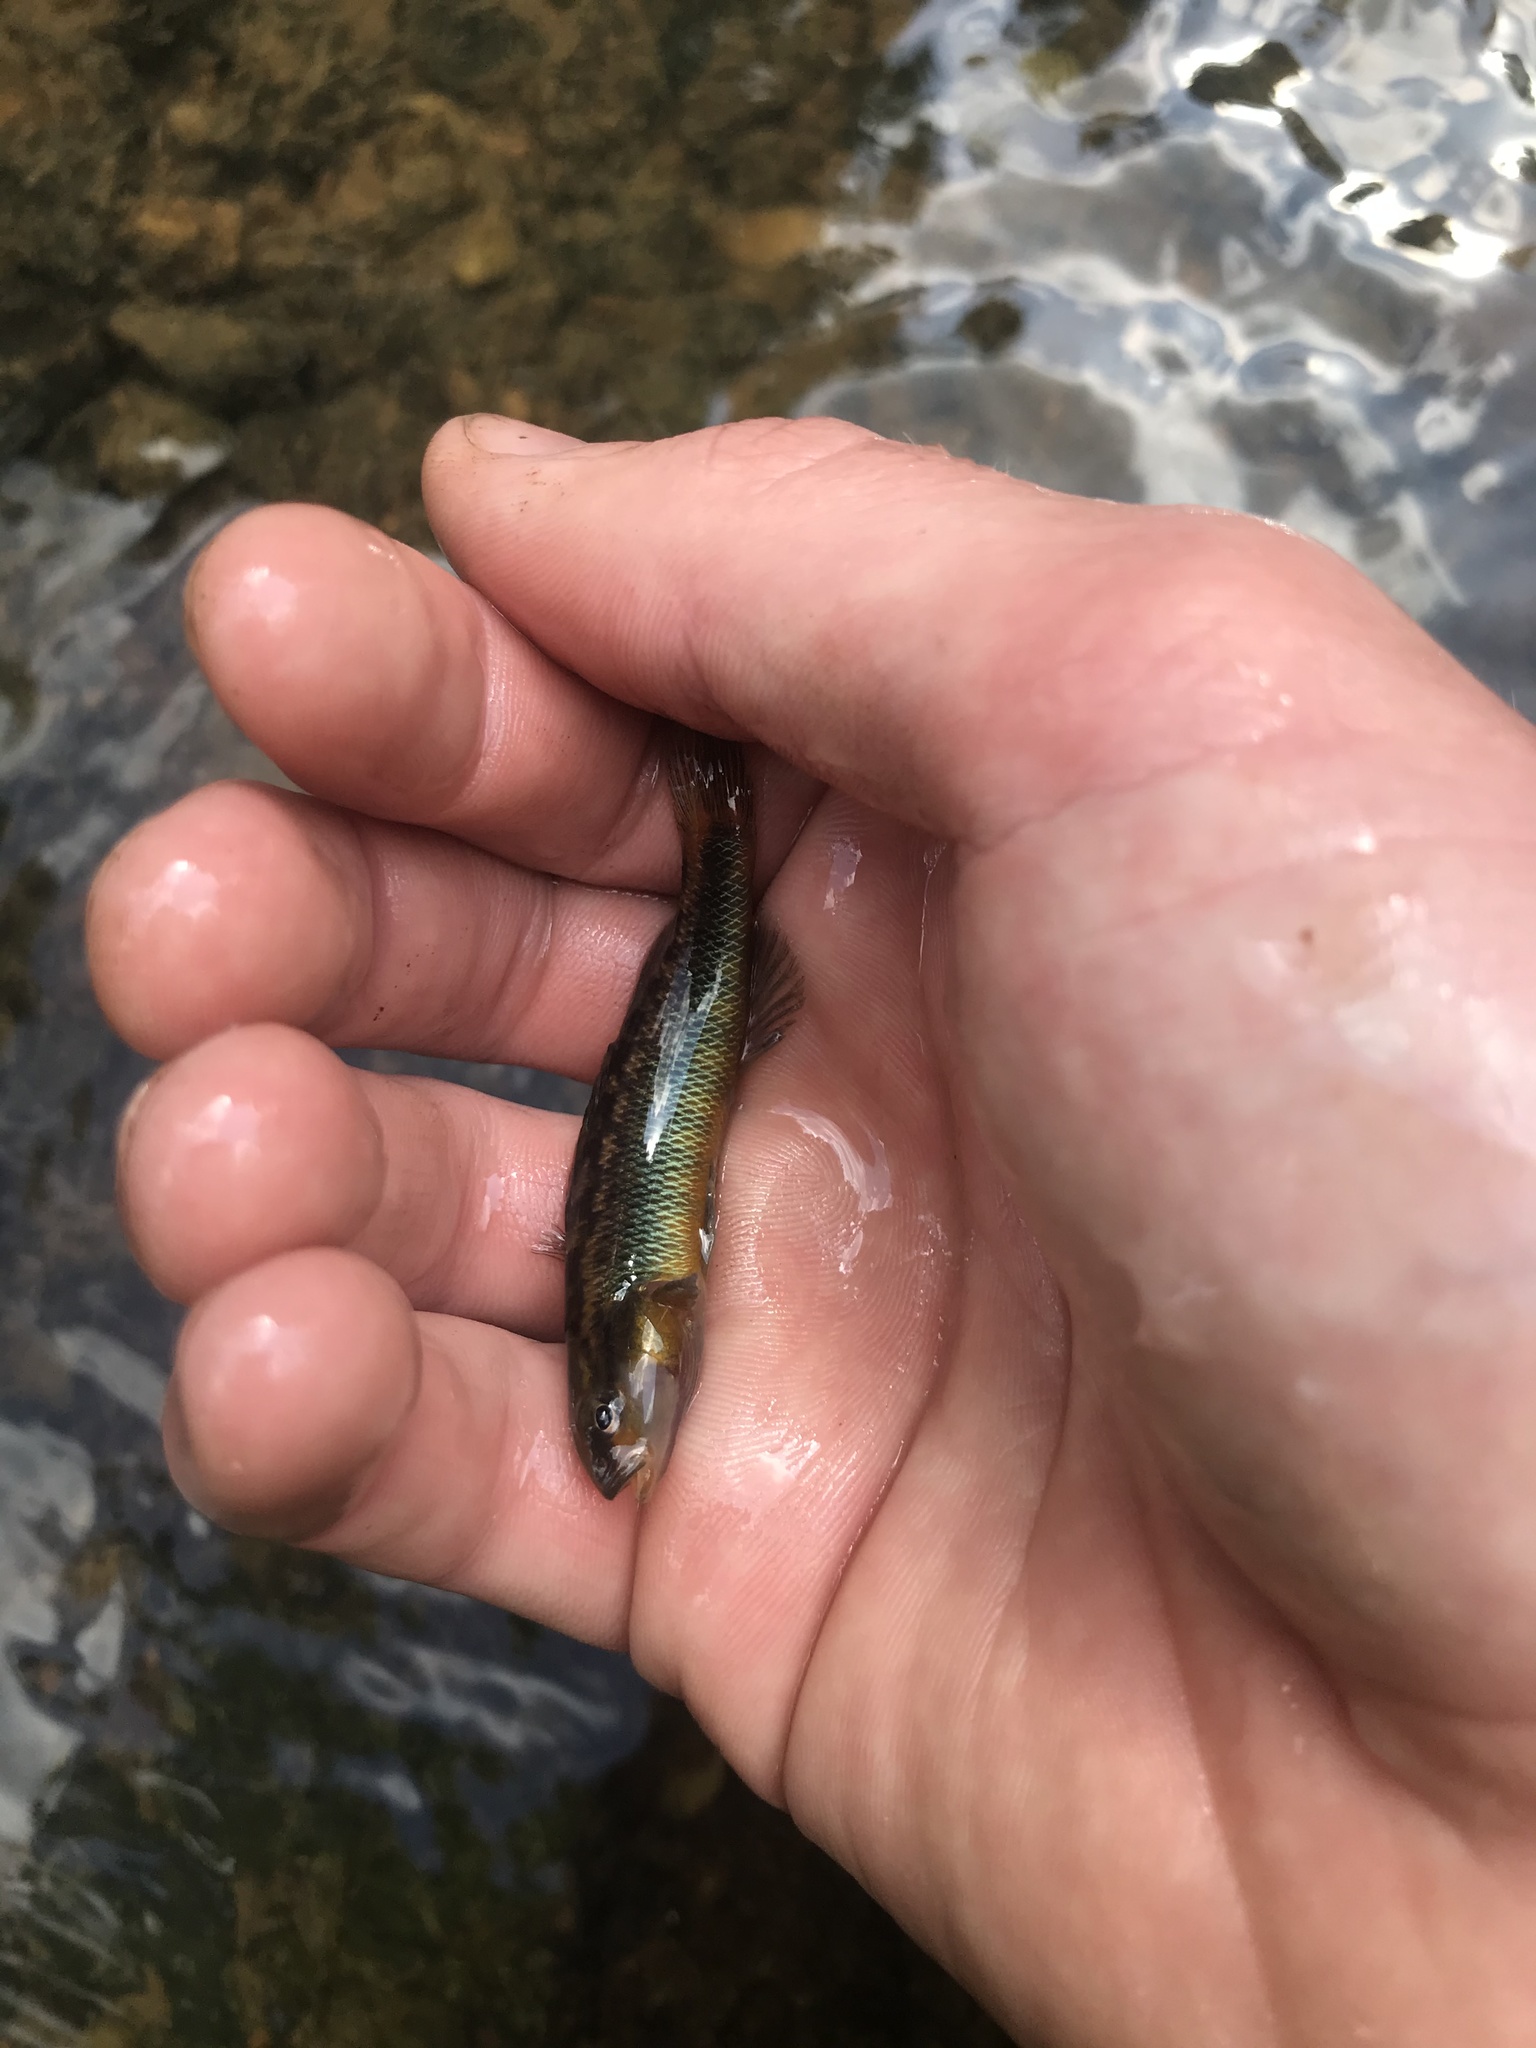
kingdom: Animalia
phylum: Chordata
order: Perciformes
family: Percidae
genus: Percina
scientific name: Percina roanoka
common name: Roanoke darter
